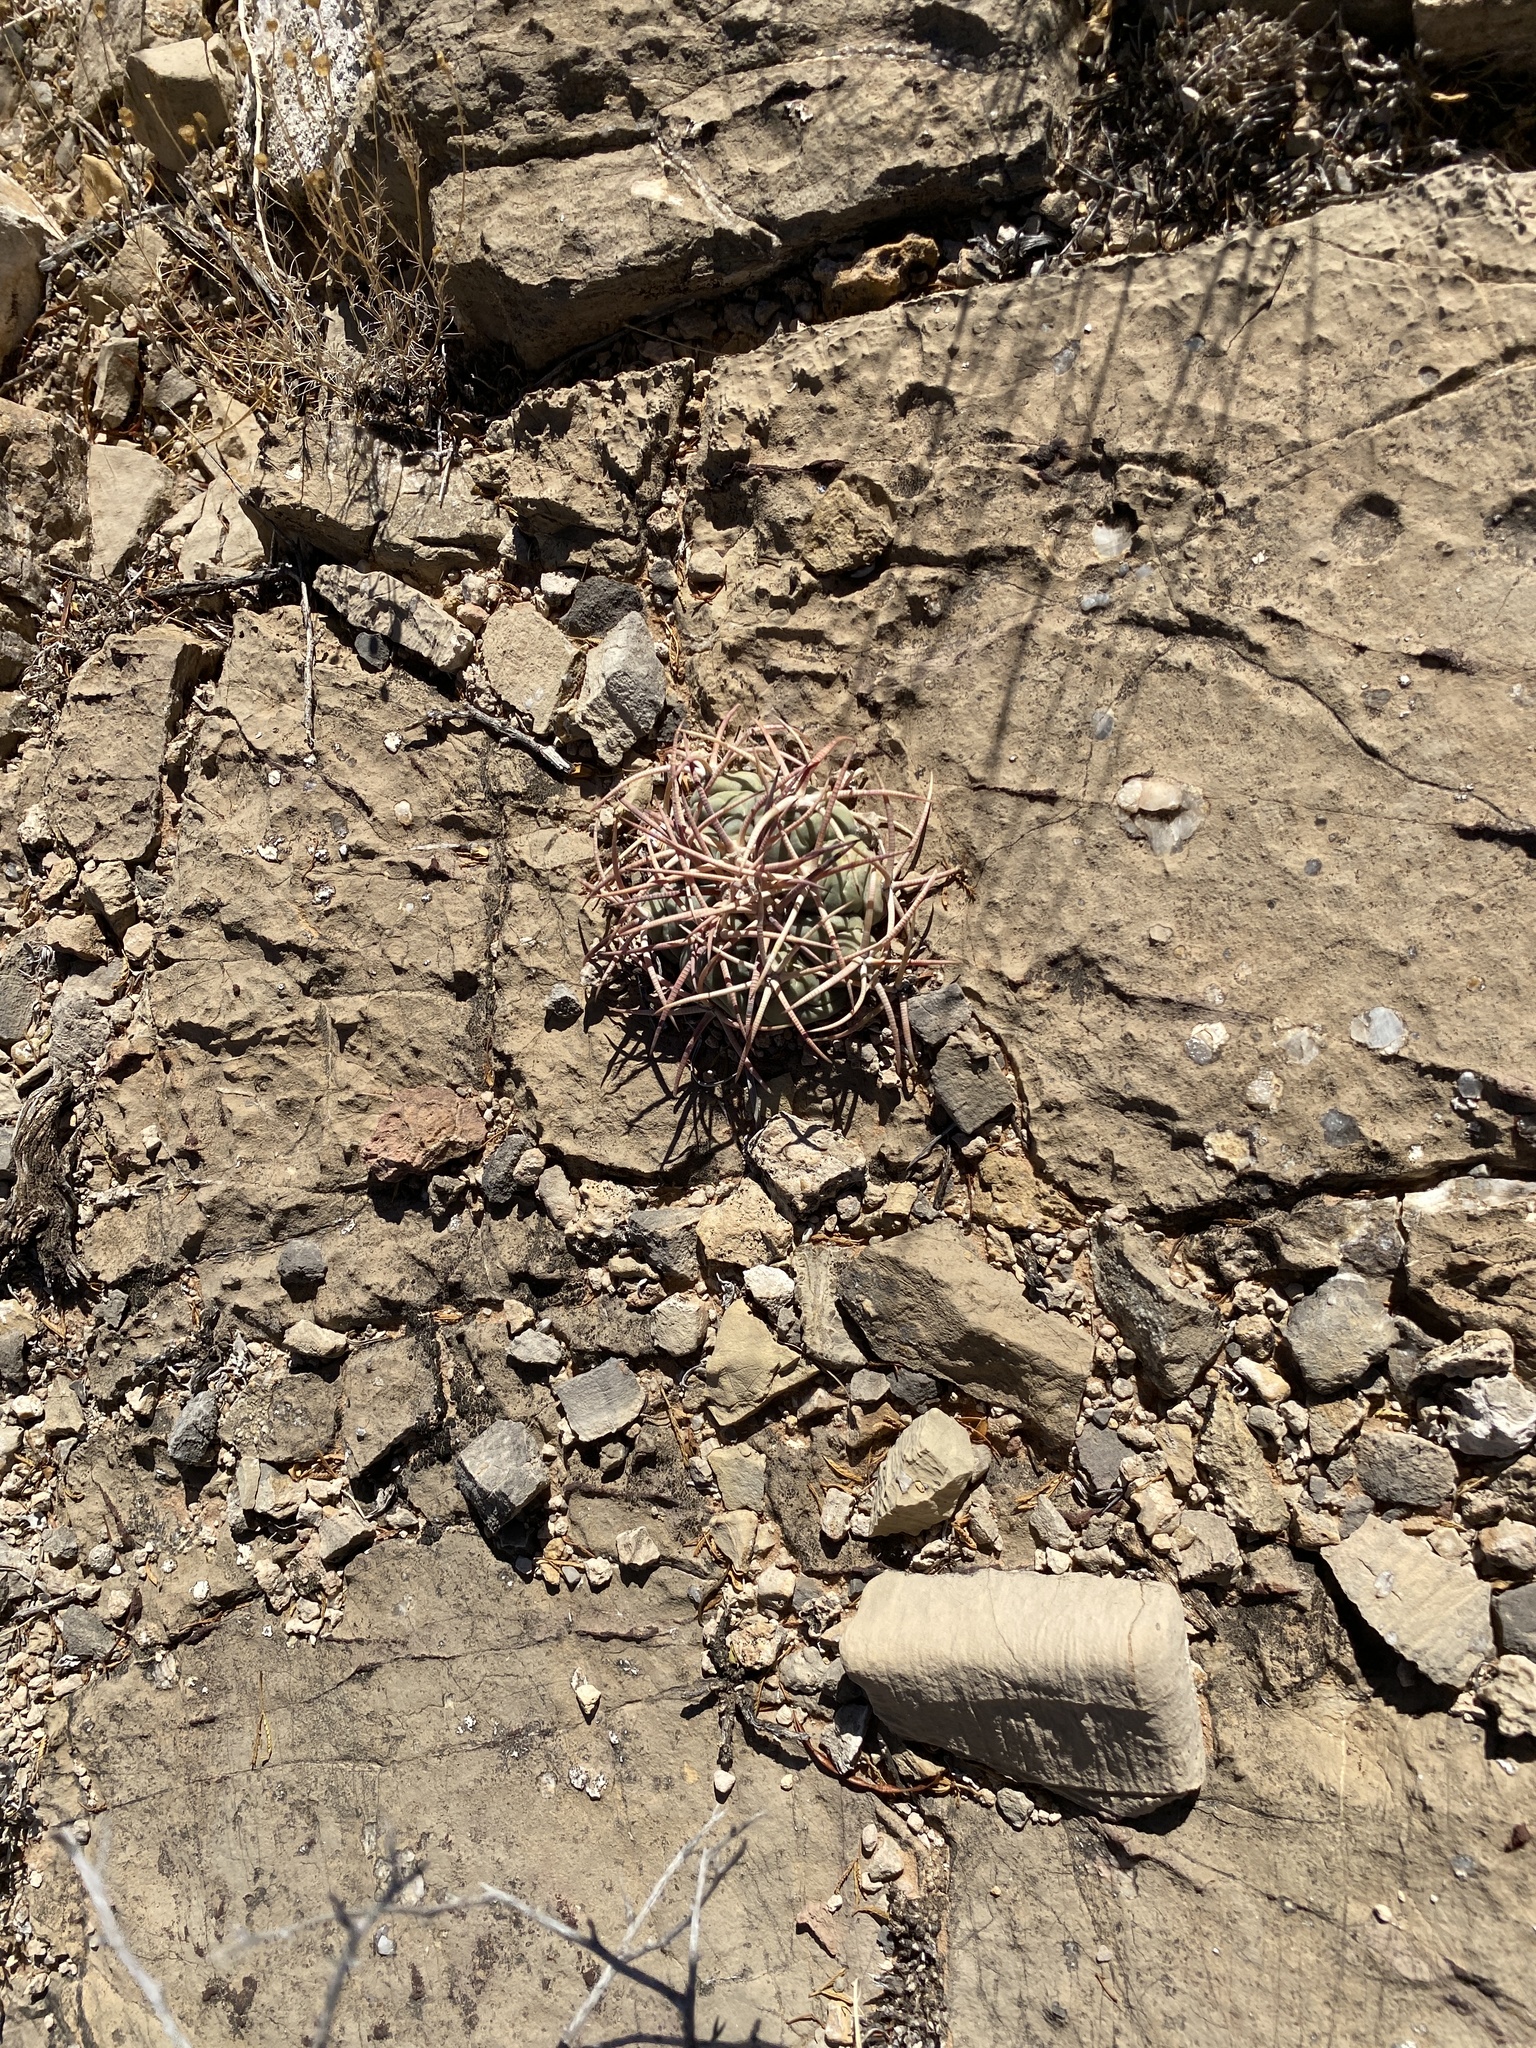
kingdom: Plantae
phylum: Tracheophyta
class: Magnoliopsida
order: Caryophyllales
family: Cactaceae
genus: Echinocactus
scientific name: Echinocactus horizonthalonius
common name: Devilshead
